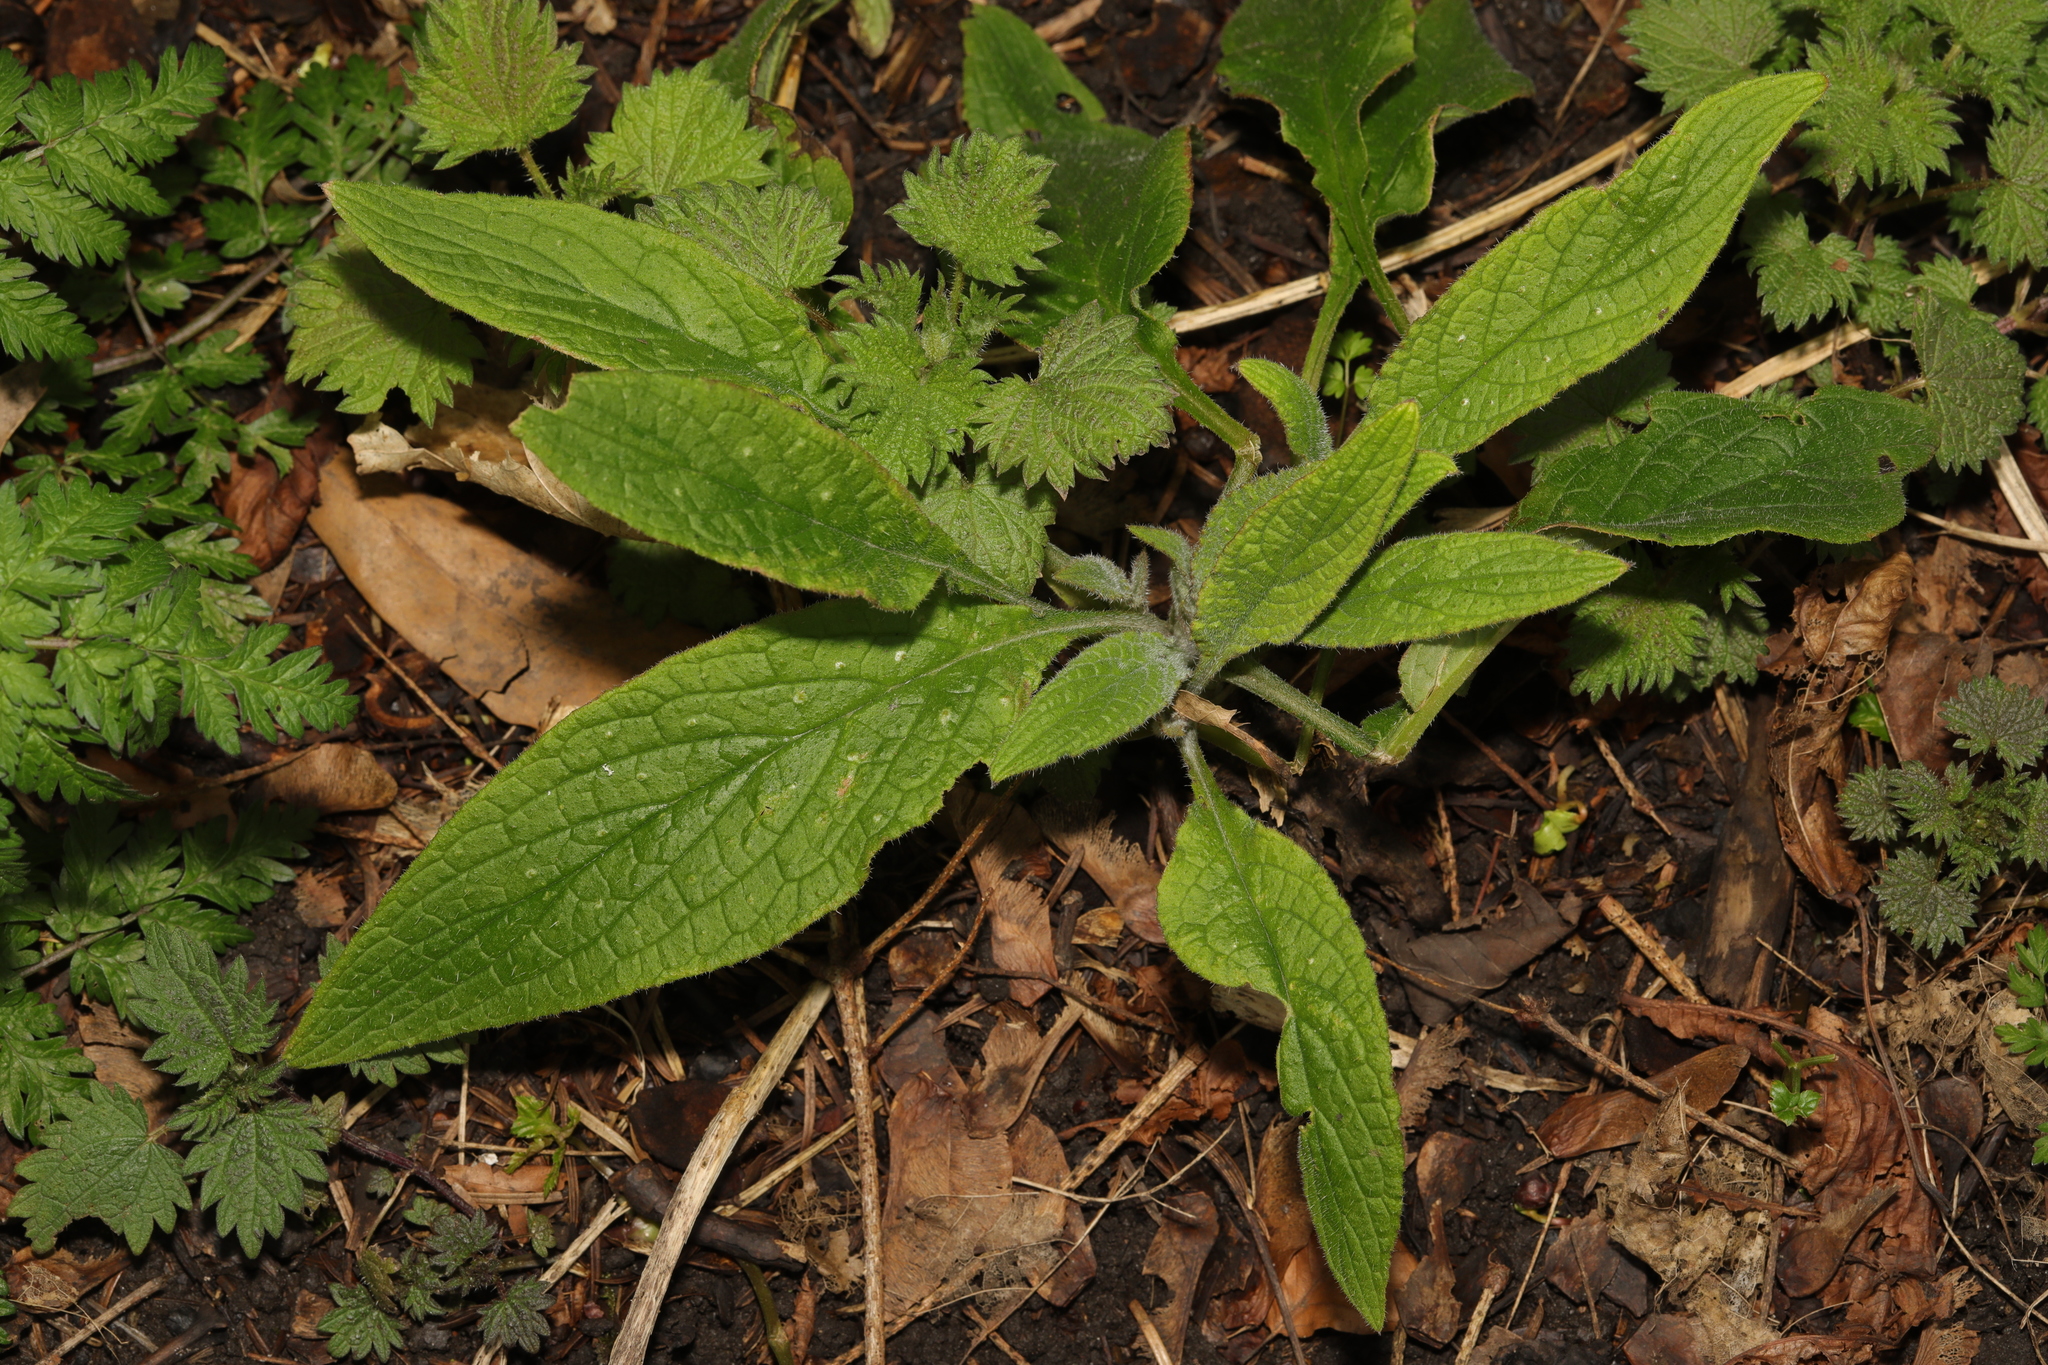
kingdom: Plantae
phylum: Tracheophyta
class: Magnoliopsida
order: Boraginales
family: Boraginaceae
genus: Pentaglottis
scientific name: Pentaglottis sempervirens
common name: Green alkanet
